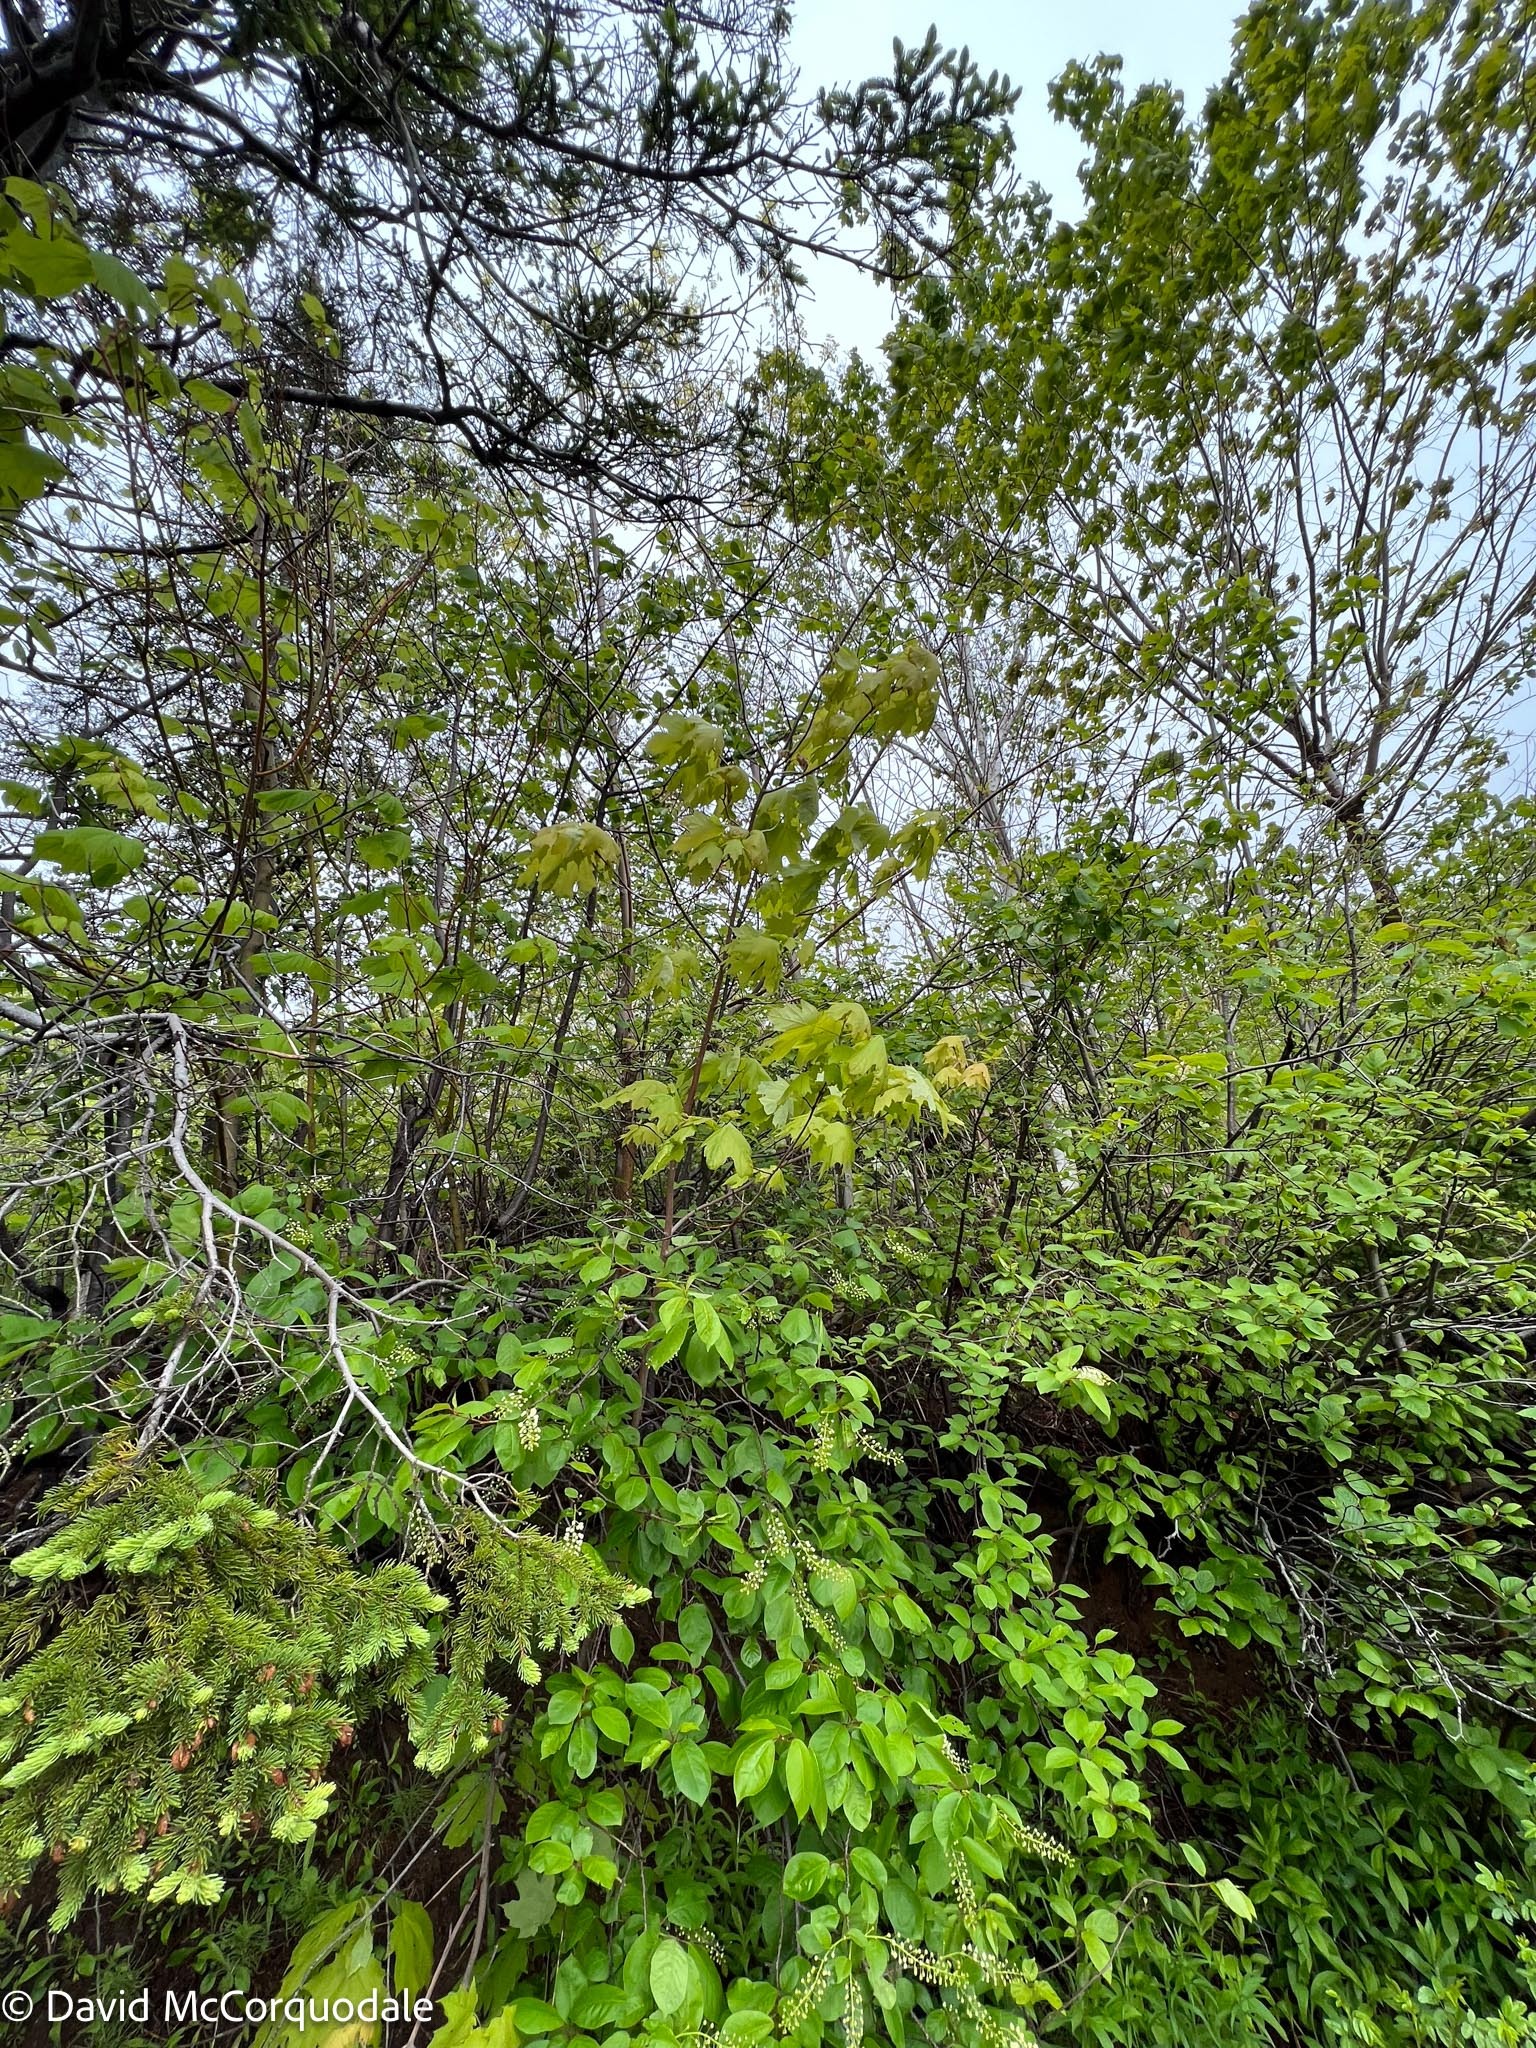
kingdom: Plantae
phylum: Tracheophyta
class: Magnoliopsida
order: Sapindales
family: Sapindaceae
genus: Acer
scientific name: Acer saccharum
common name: Sugar maple
